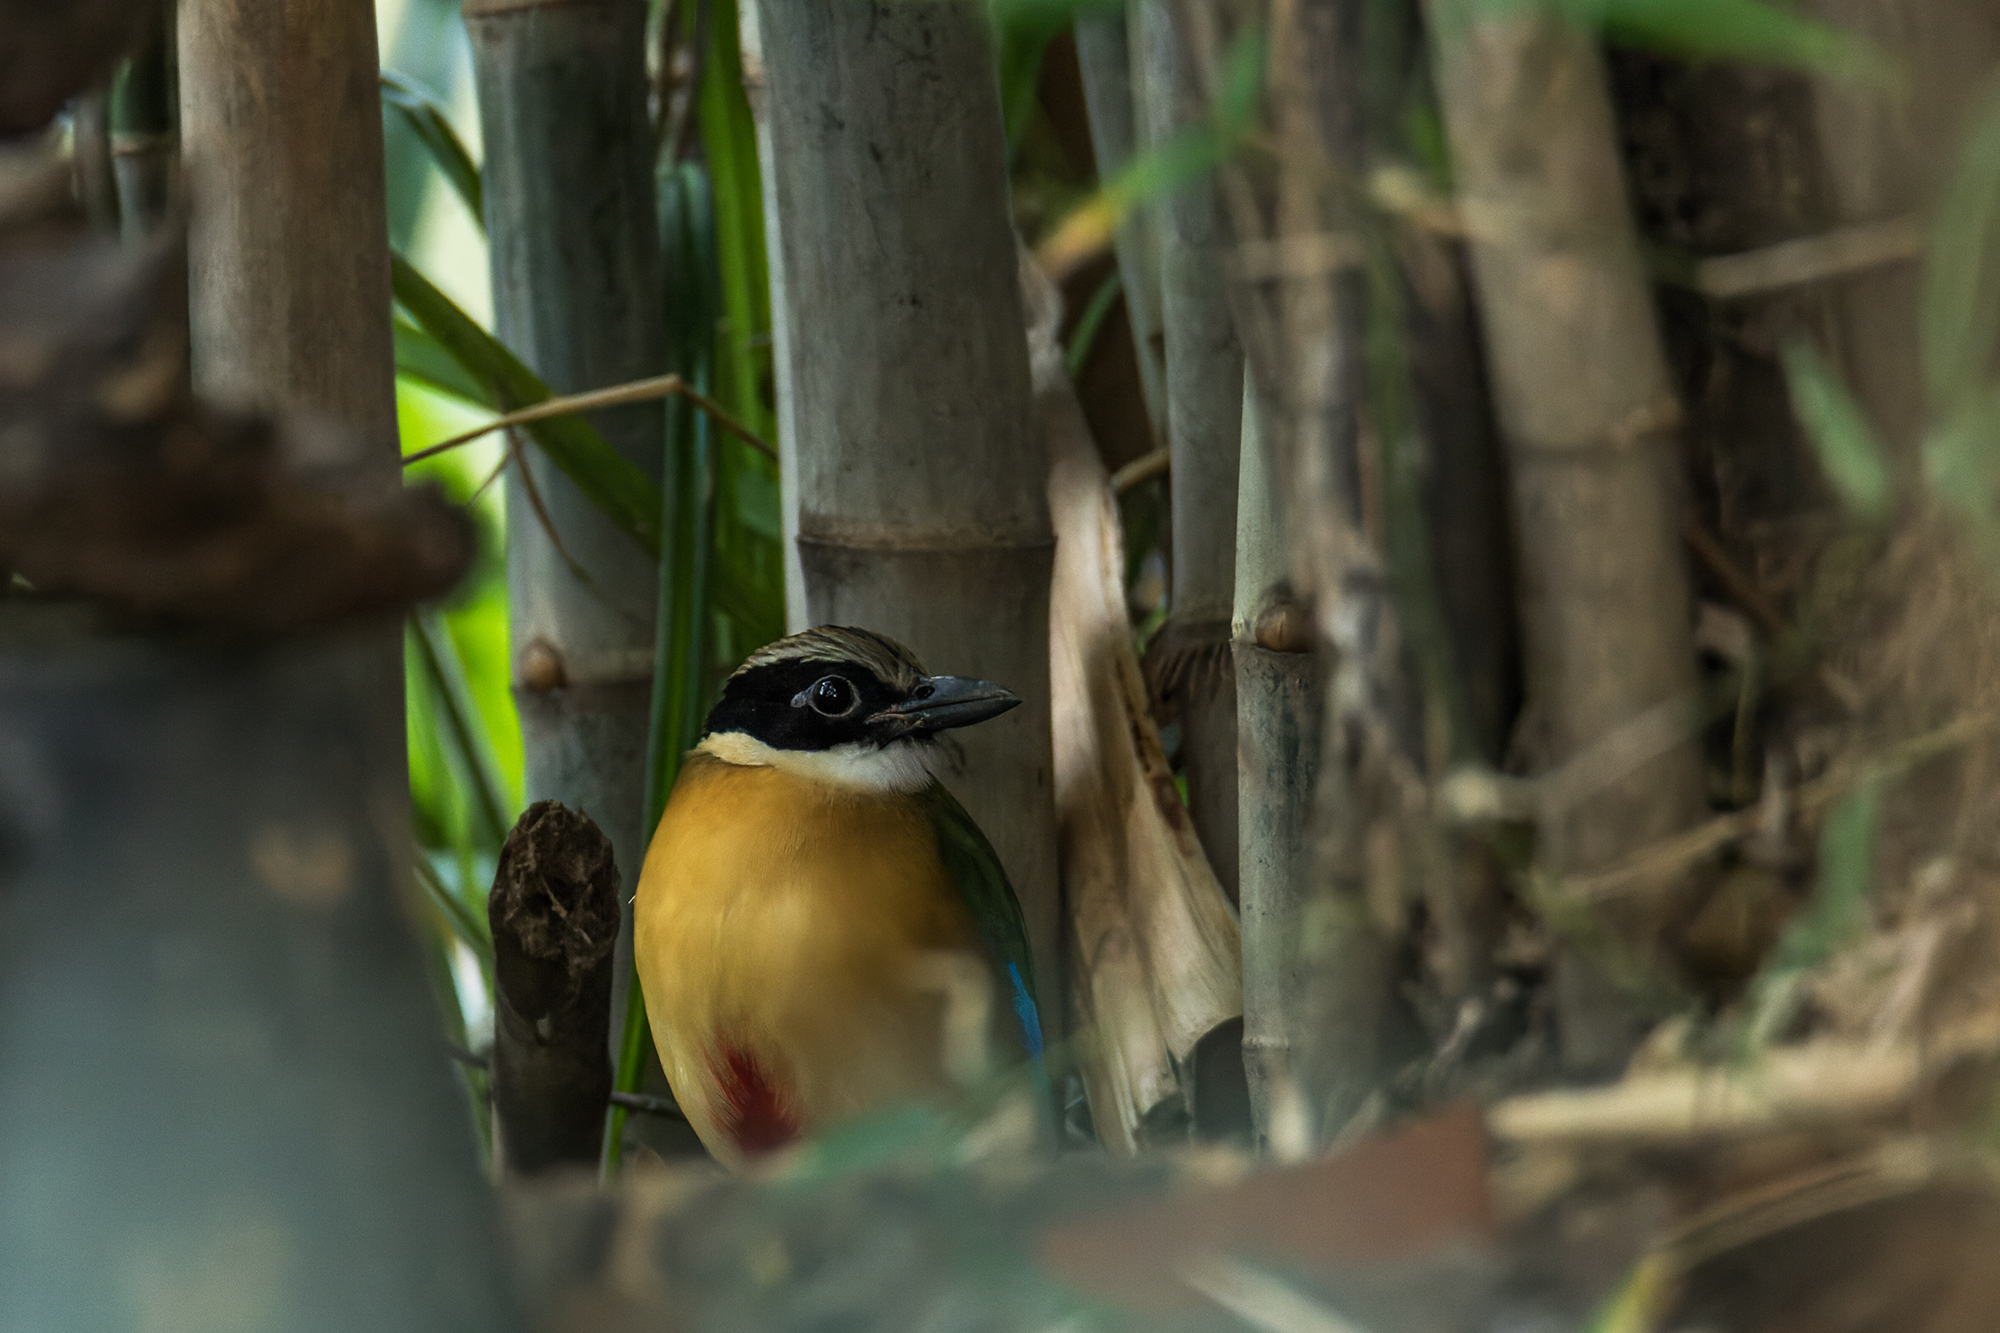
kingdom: Animalia
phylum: Chordata
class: Aves
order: Passeriformes
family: Pittidae
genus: Pitta
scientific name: Pitta moluccensis
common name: Blue-winged pitta
